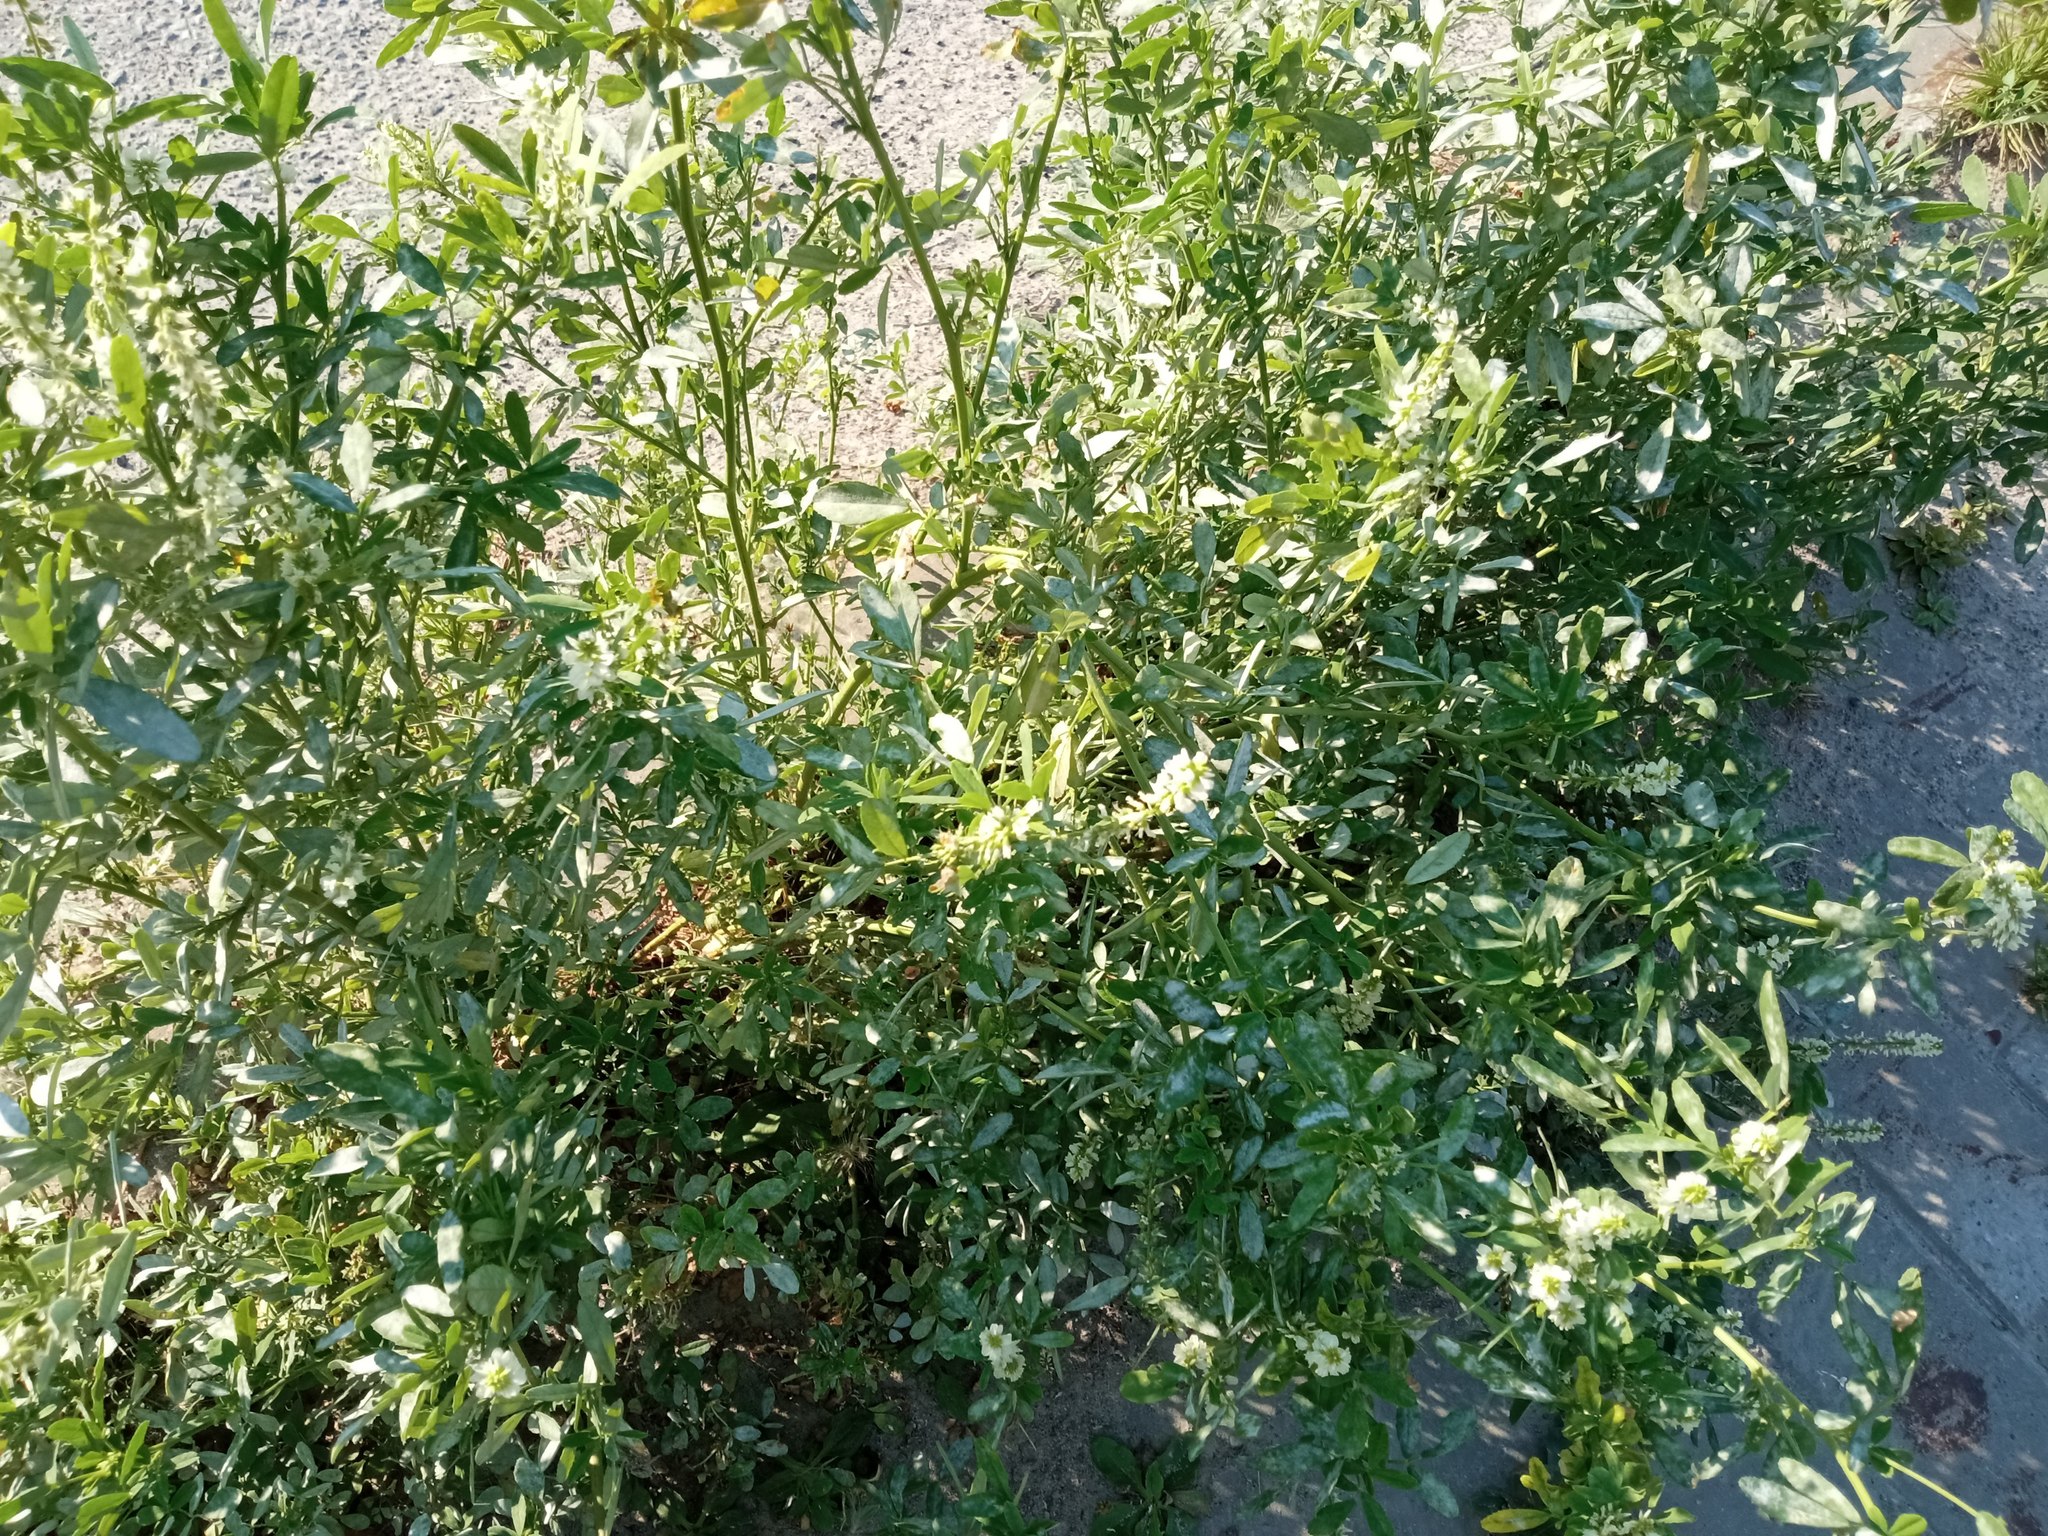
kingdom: Plantae
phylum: Tracheophyta
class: Magnoliopsida
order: Fabales
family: Fabaceae
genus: Melilotus
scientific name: Melilotus albus
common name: White melilot
